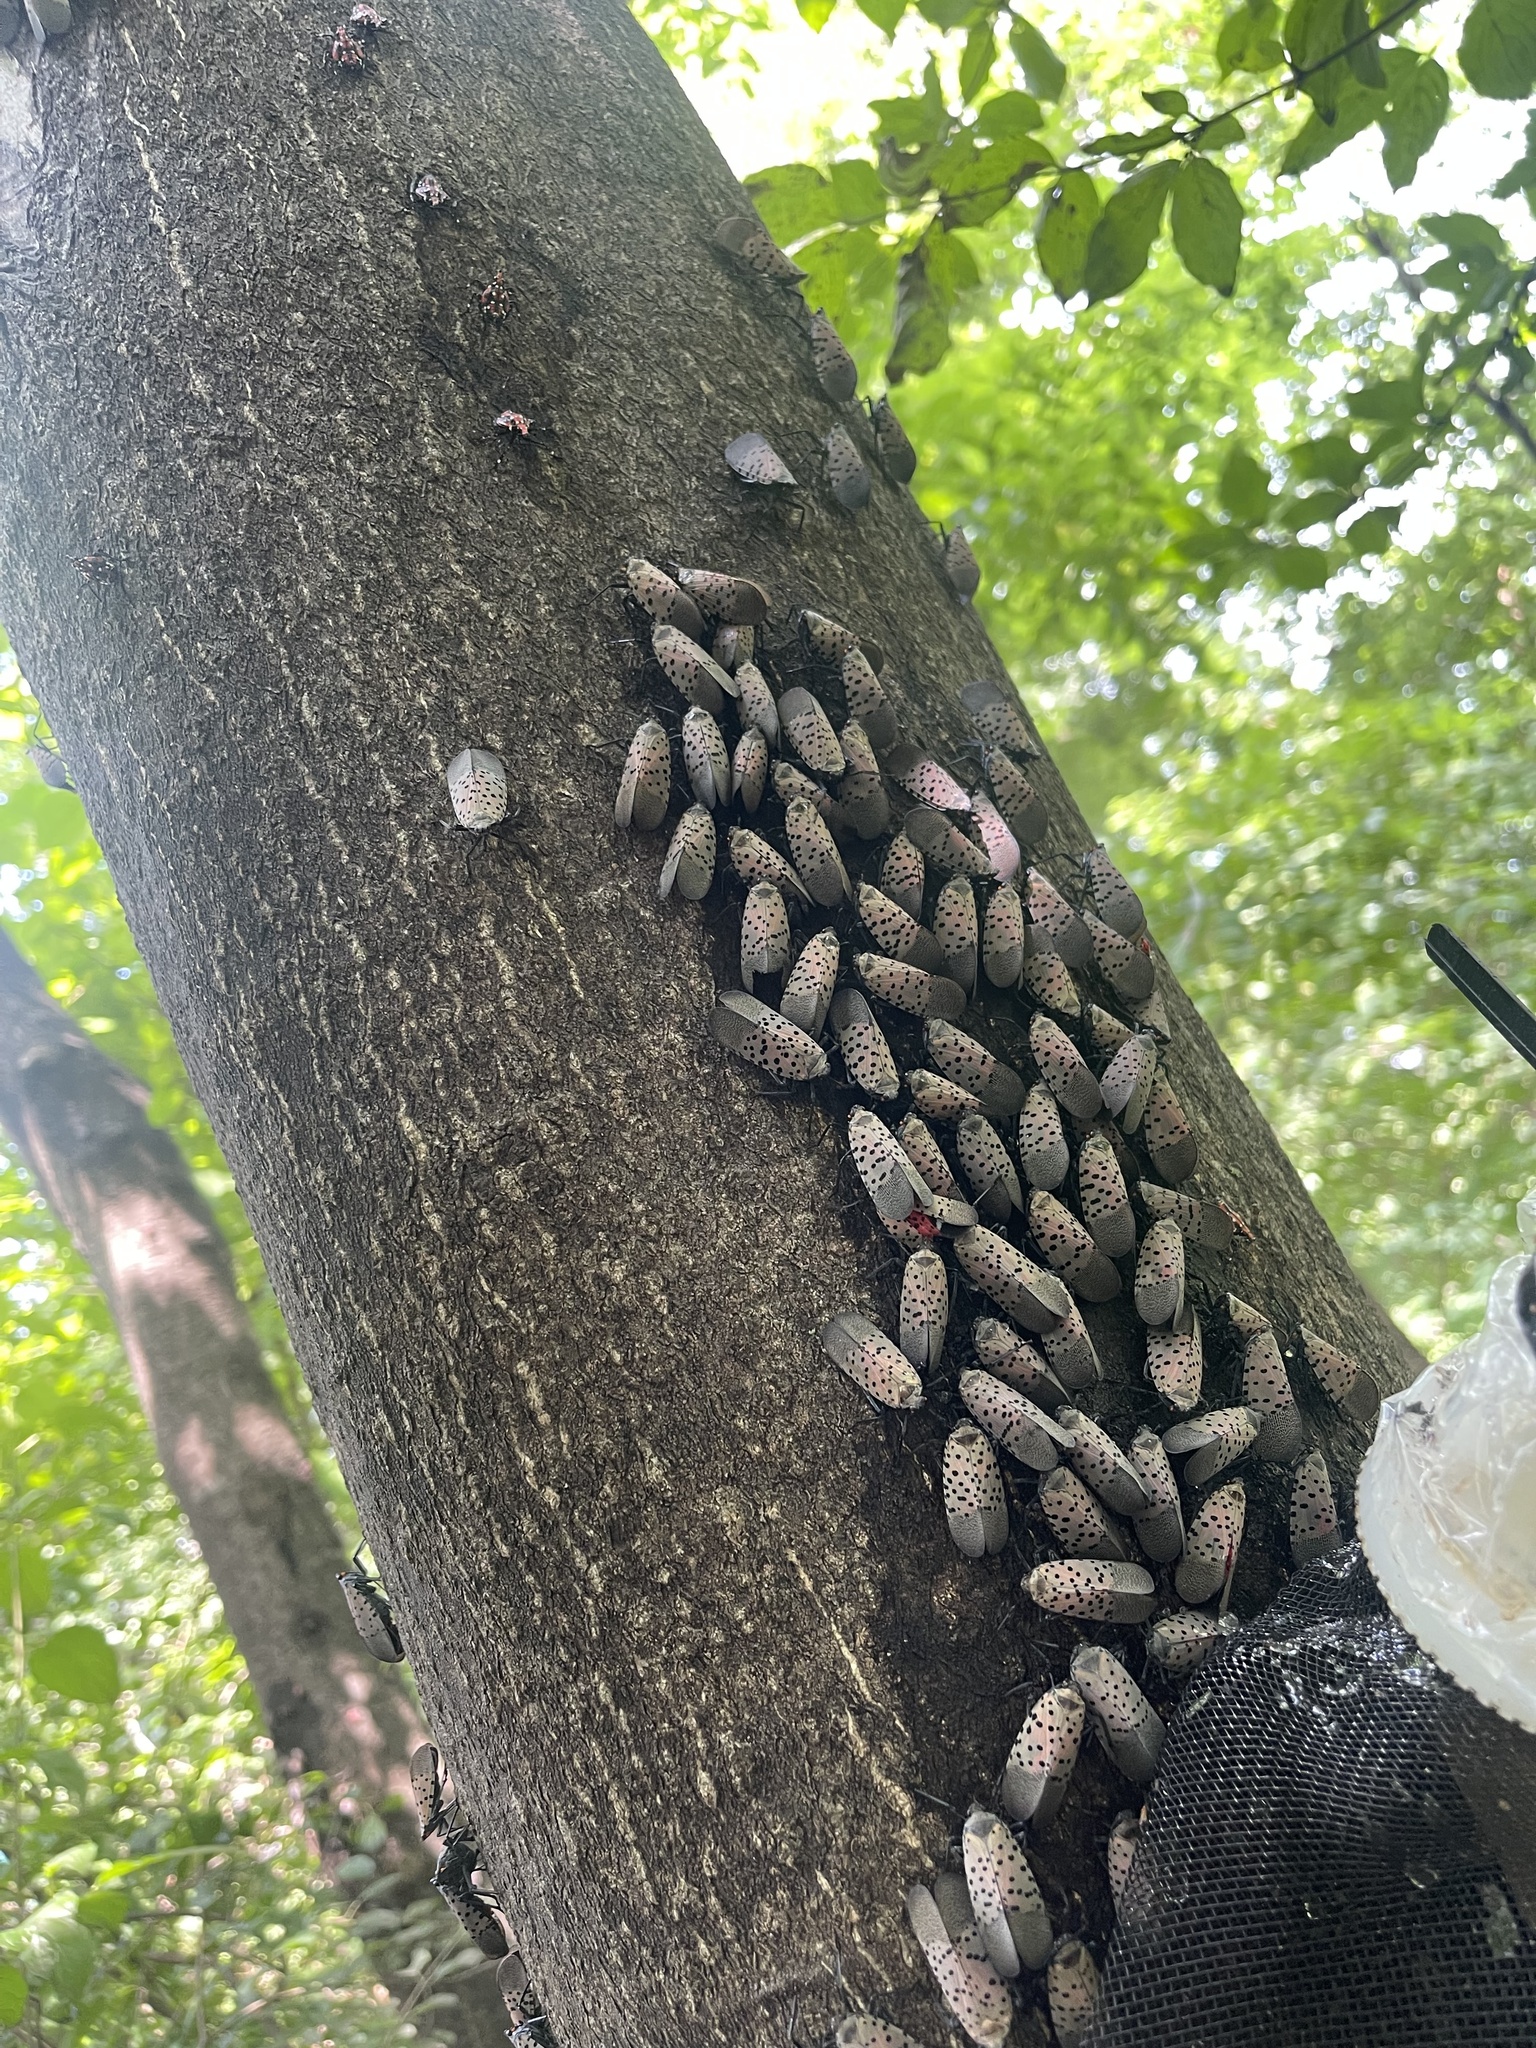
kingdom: Animalia
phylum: Arthropoda
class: Insecta
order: Hemiptera
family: Fulgoridae
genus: Lycorma
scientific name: Lycorma delicatula
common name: Spotted lanternfly
